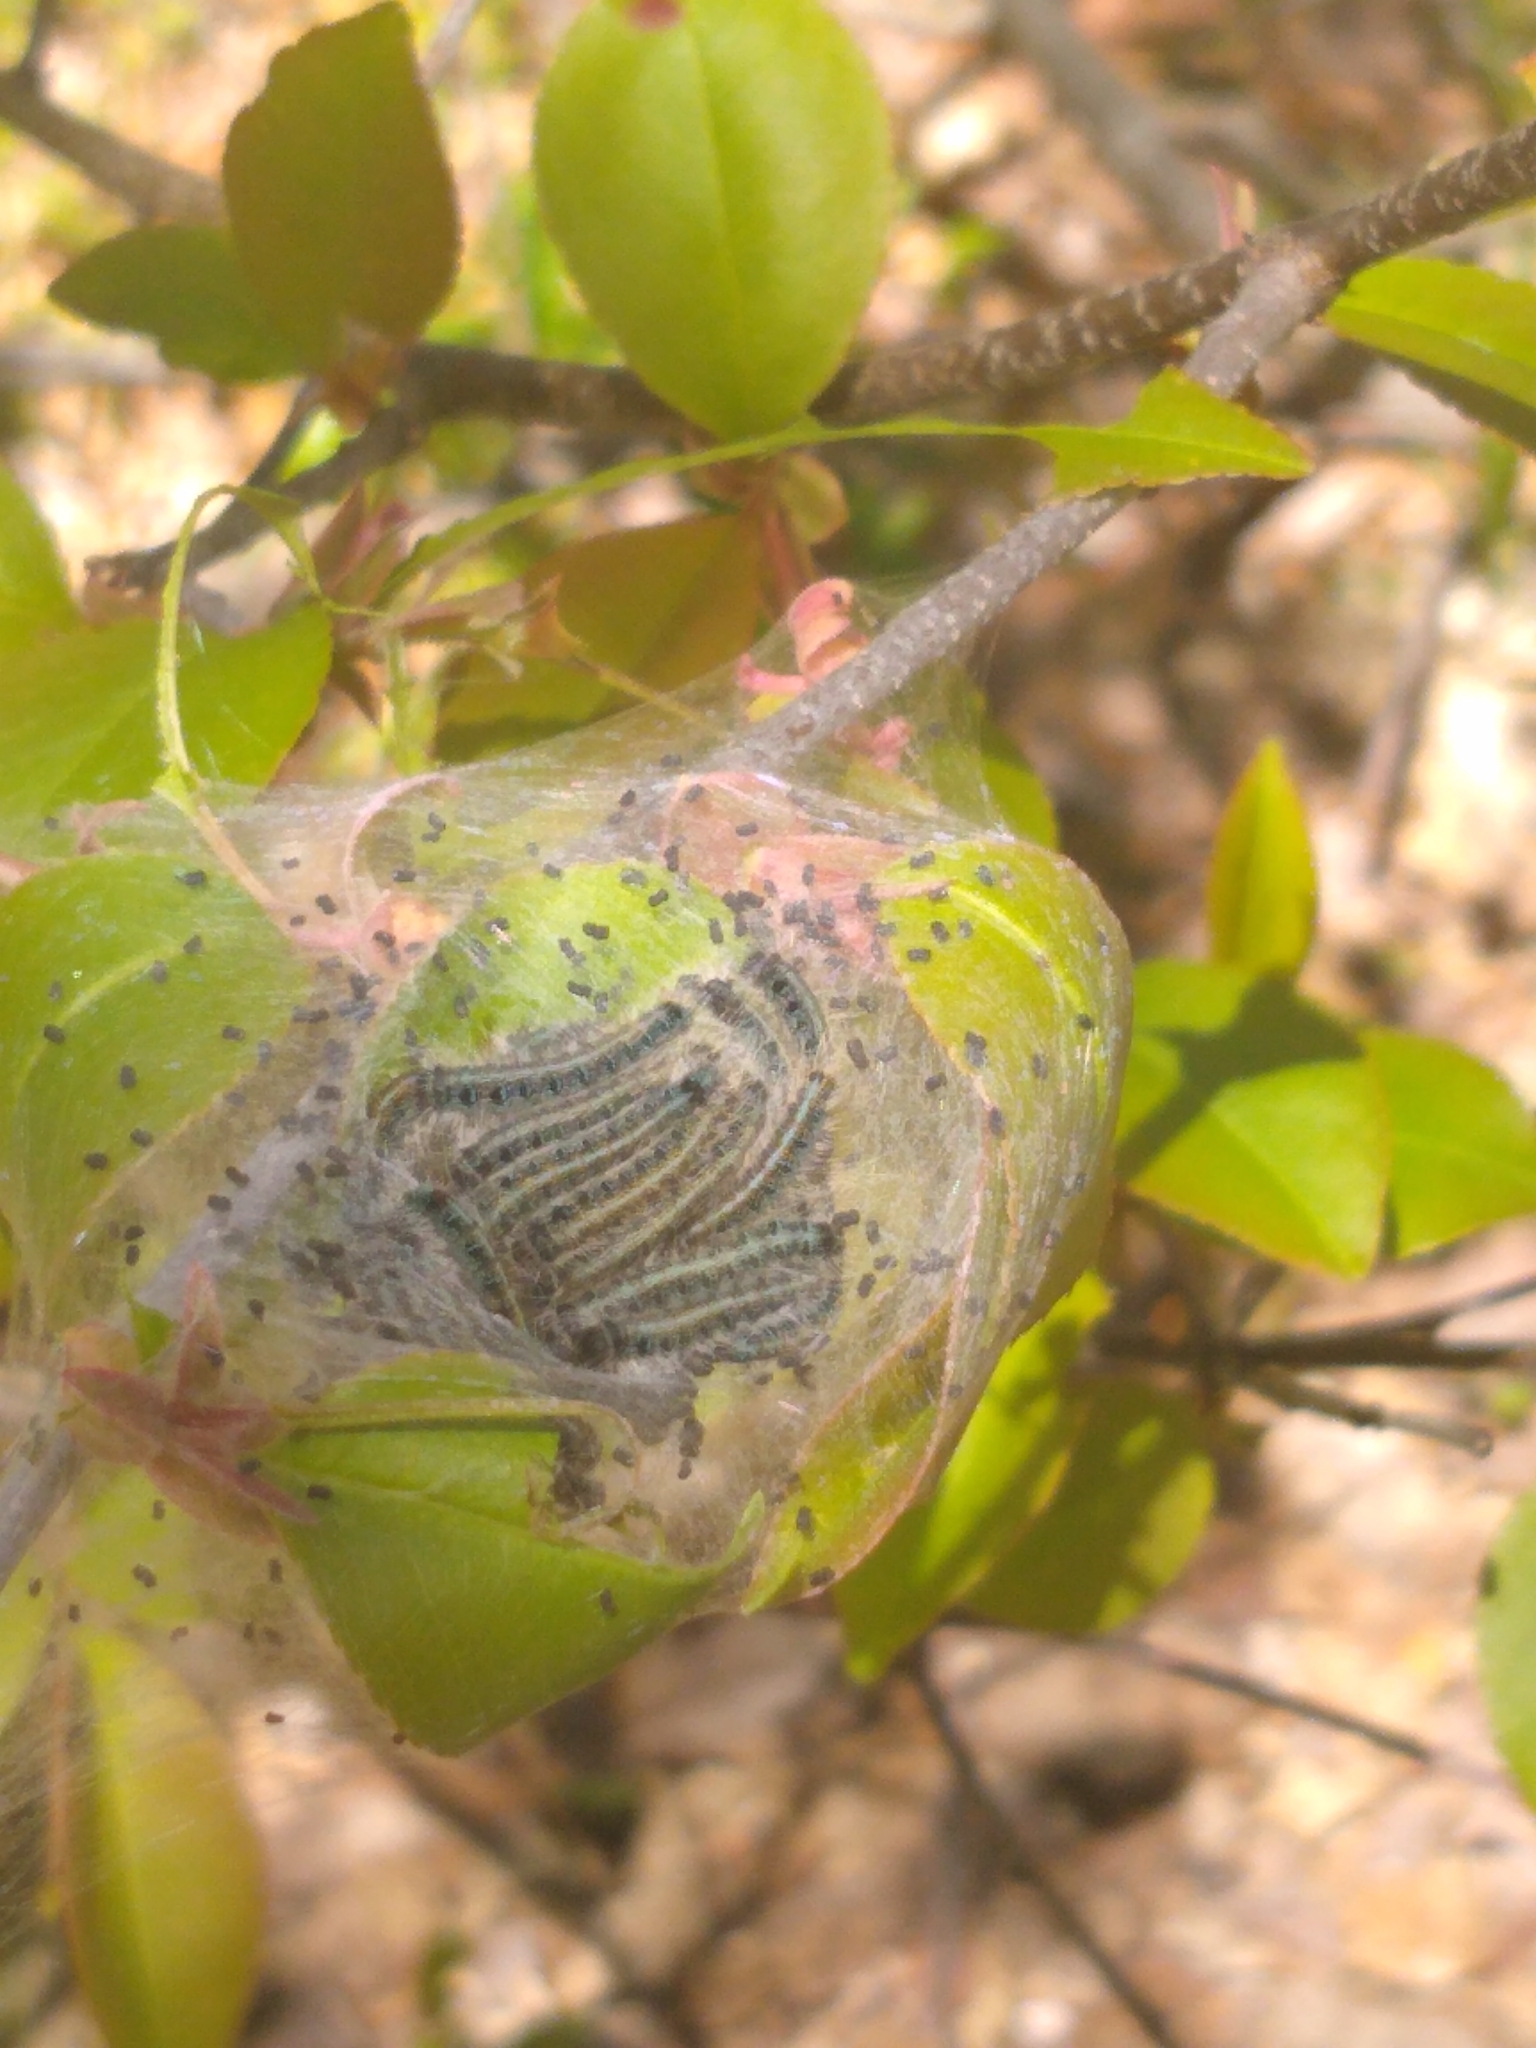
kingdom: Animalia
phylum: Arthropoda
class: Insecta
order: Lepidoptera
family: Lasiocampidae
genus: Malacosoma
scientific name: Malacosoma americana
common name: Eastern tent caterpillar moth
